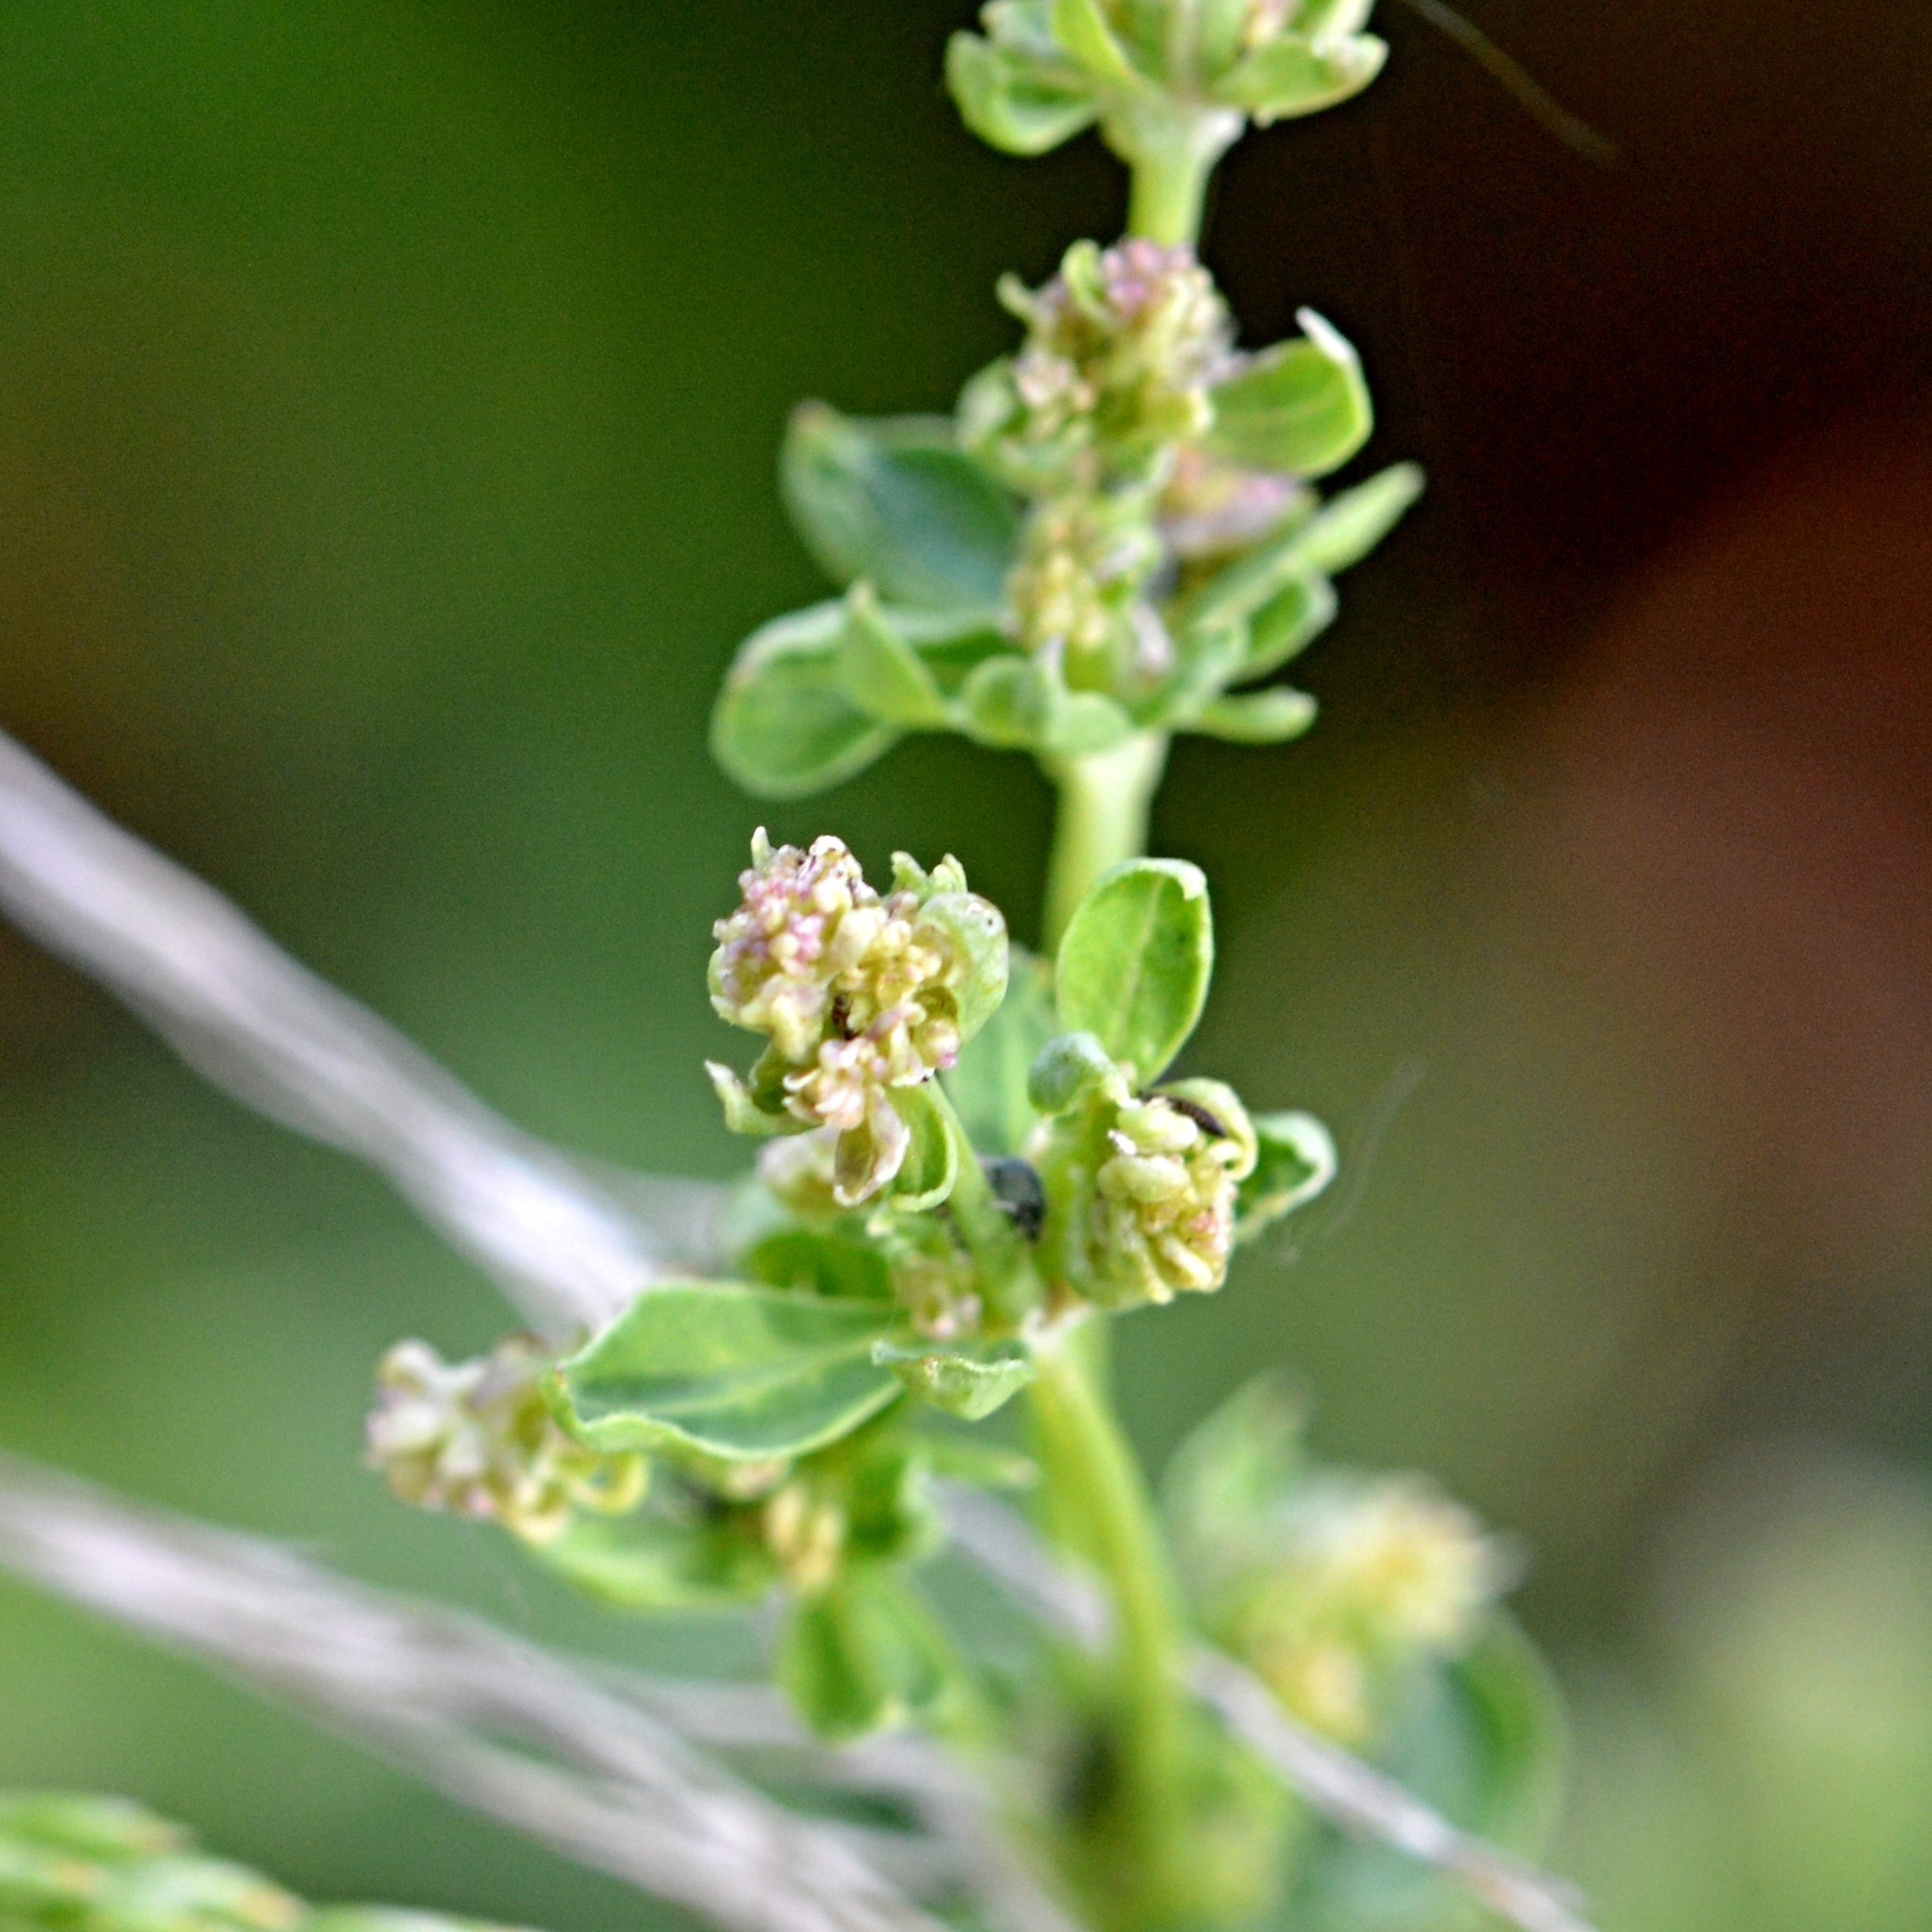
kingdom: Plantae
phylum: Tracheophyta
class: Magnoliopsida
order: Gentianales
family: Rubiaceae
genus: Galium
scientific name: Galium sylvaticum
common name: Wood bedstraw
